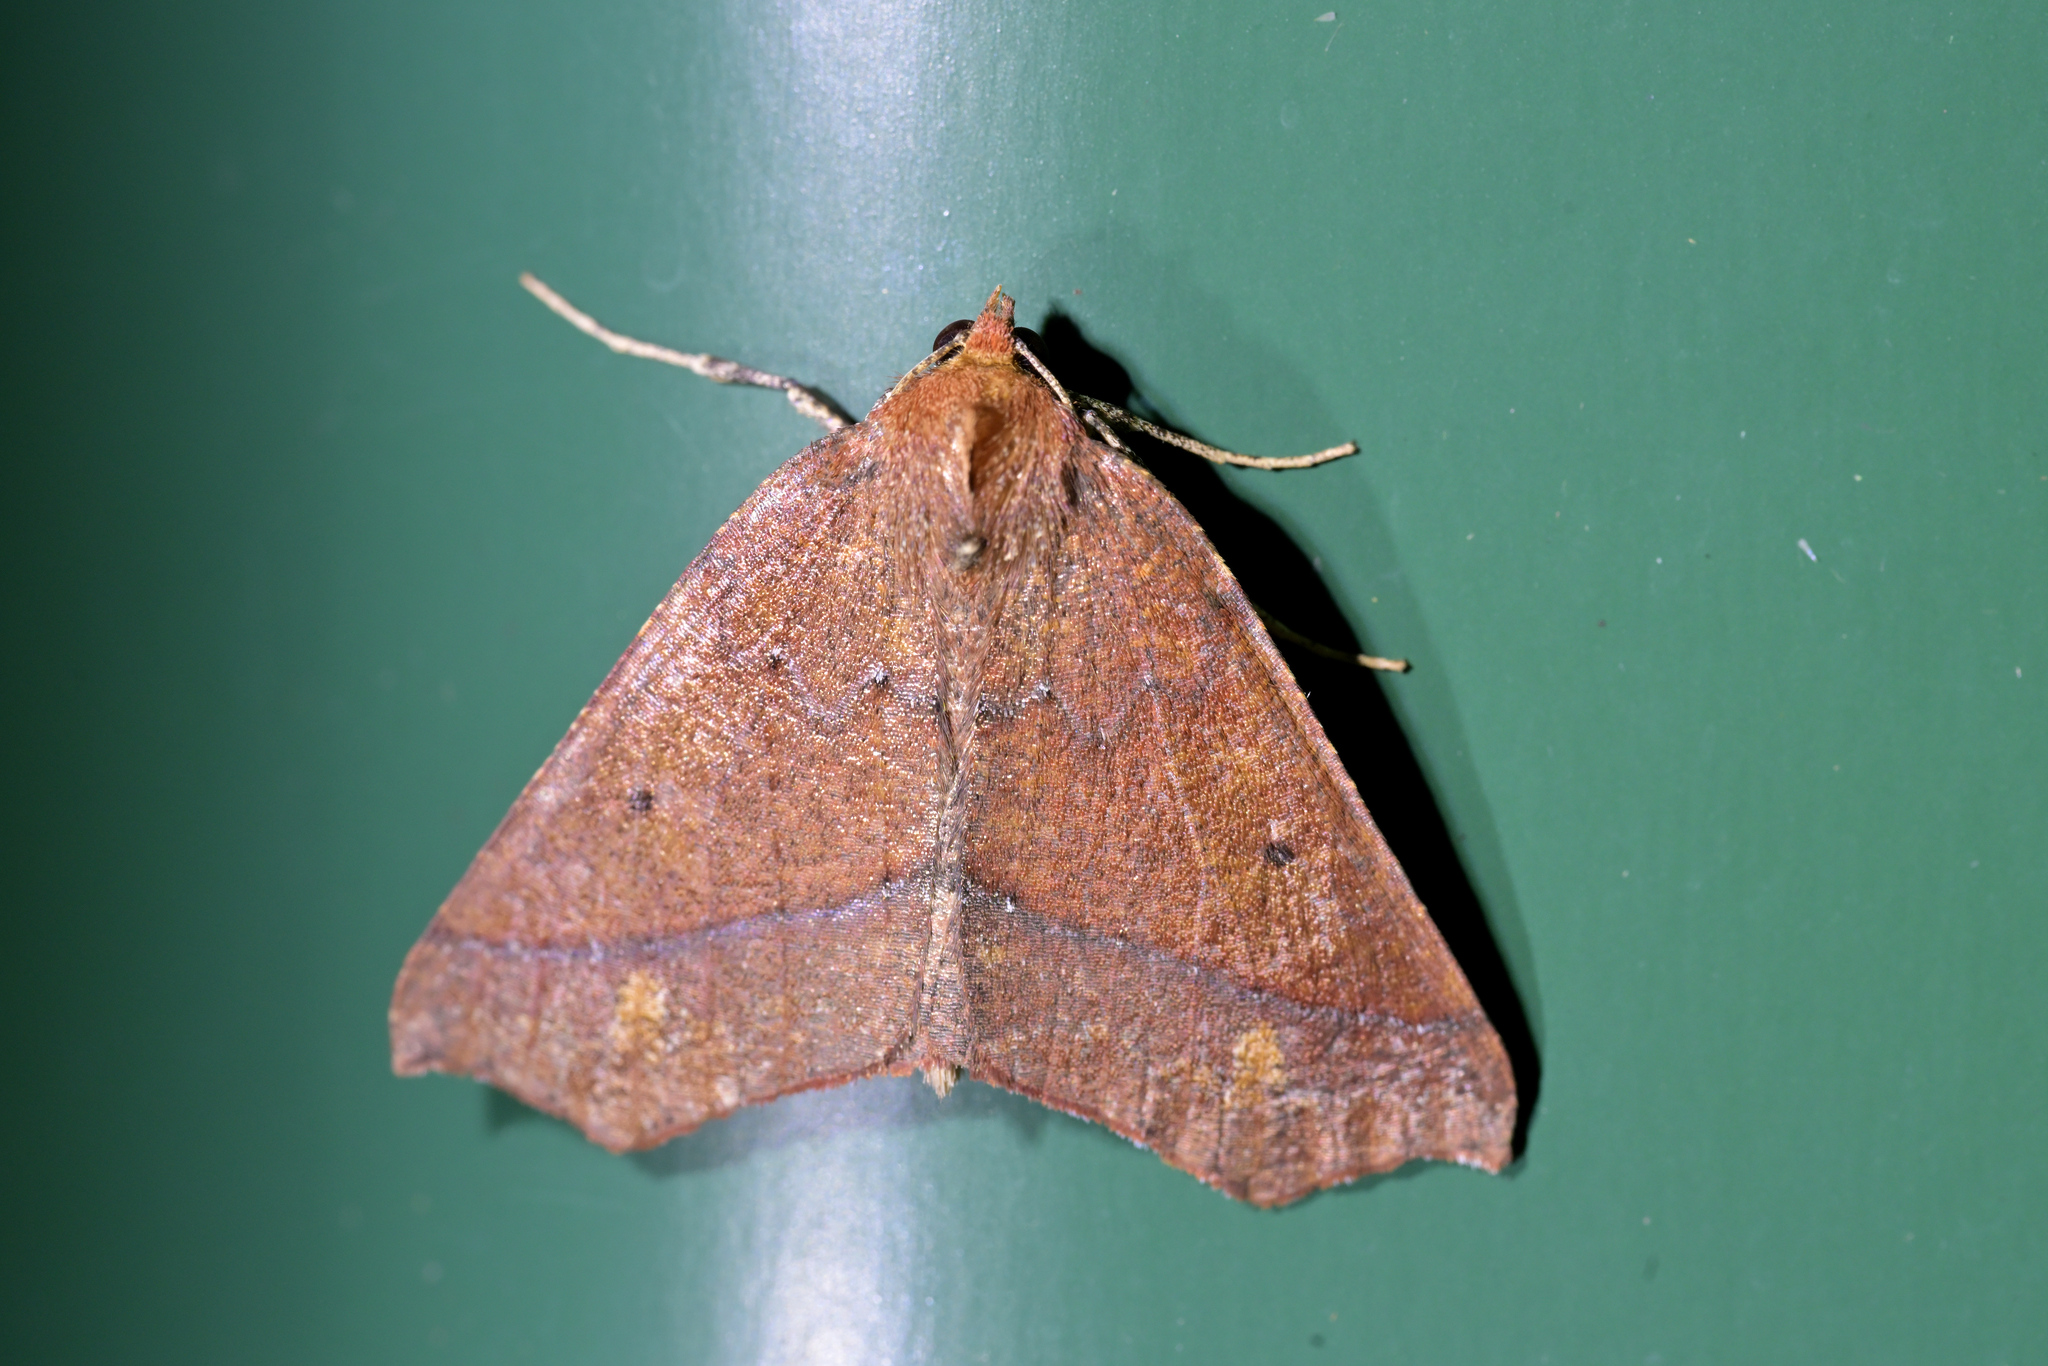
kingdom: Animalia
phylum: Arthropoda
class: Insecta
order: Lepidoptera
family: Geometridae
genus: Ischalis
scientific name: Ischalis nelsonaria
